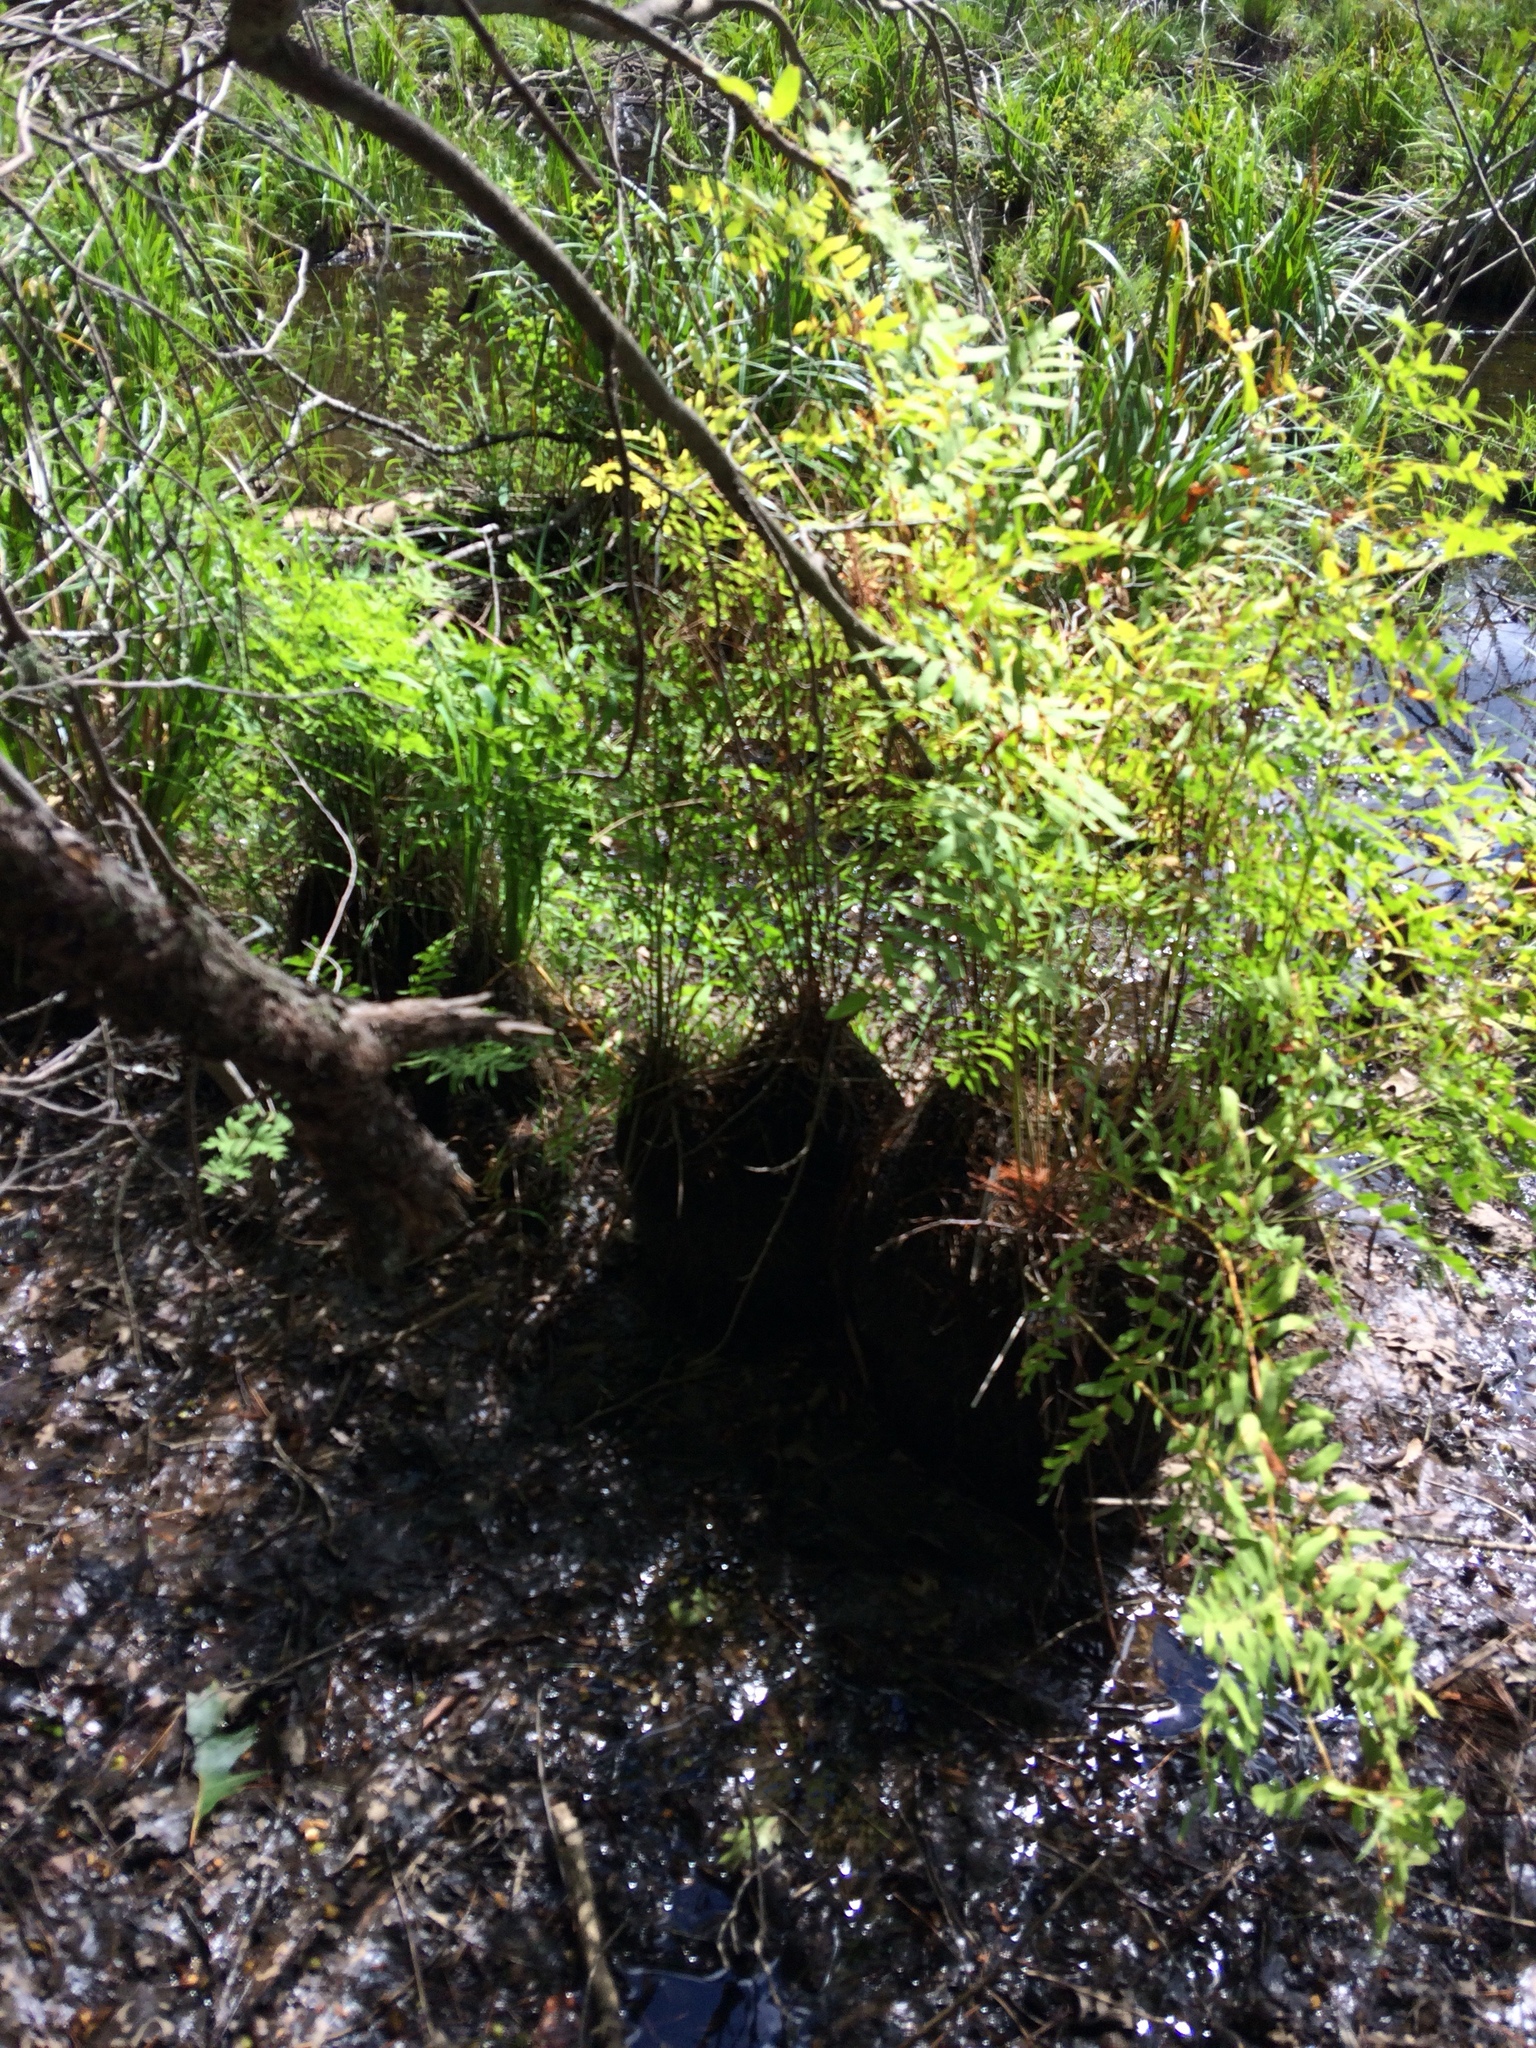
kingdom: Plantae
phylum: Tracheophyta
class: Polypodiopsida
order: Osmundales
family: Osmundaceae
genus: Osmunda
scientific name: Osmunda spectabilis
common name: American royal fern
